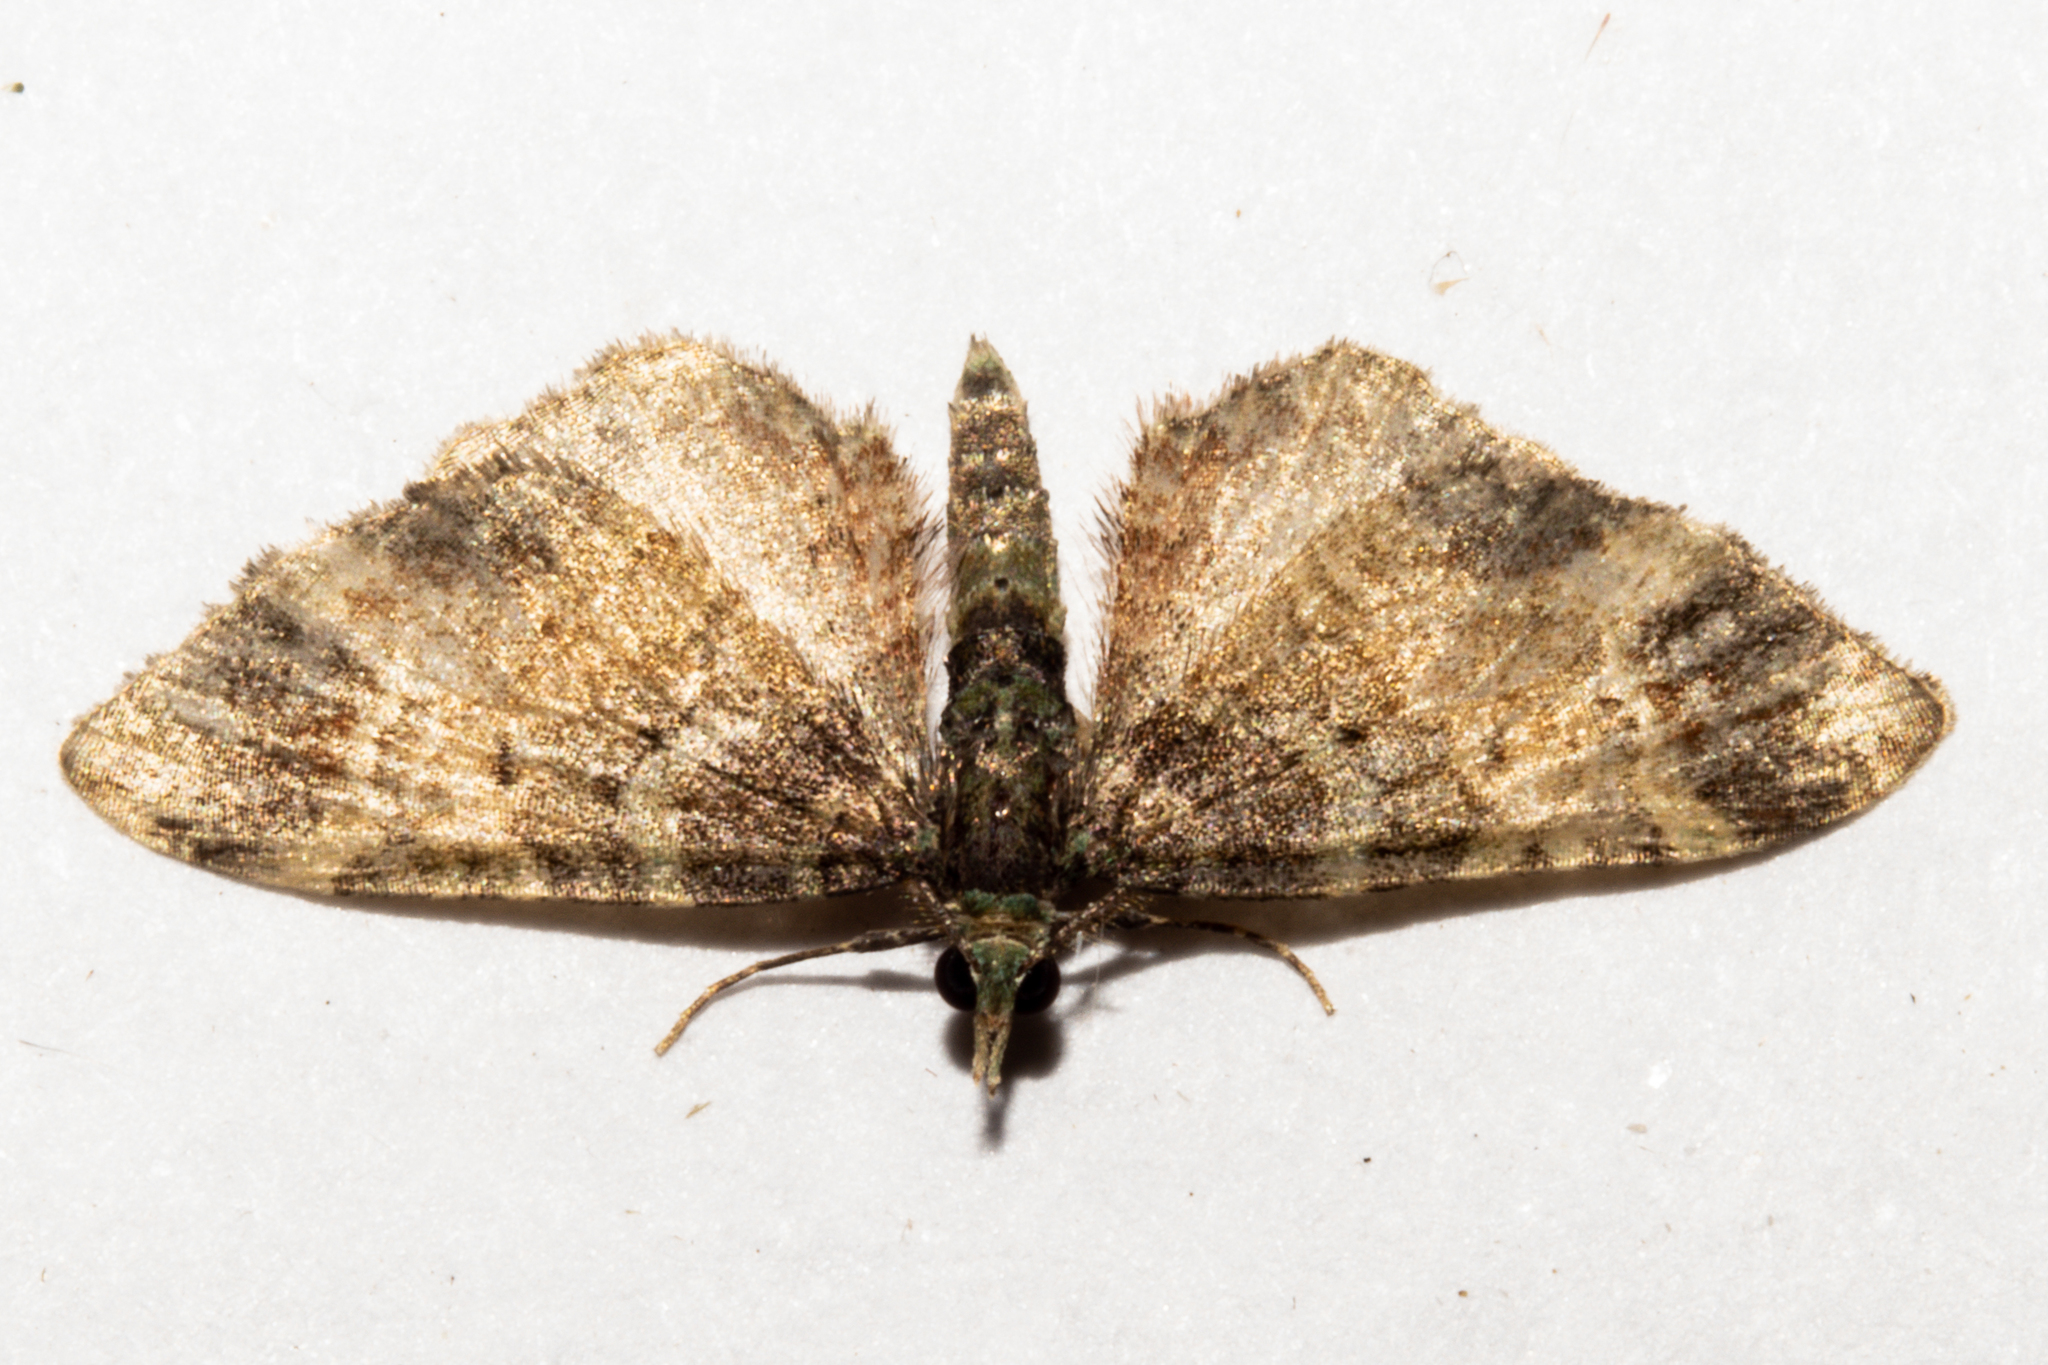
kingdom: Animalia
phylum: Arthropoda
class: Insecta
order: Lepidoptera
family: Geometridae
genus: Idaea
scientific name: Idaea mutanda
